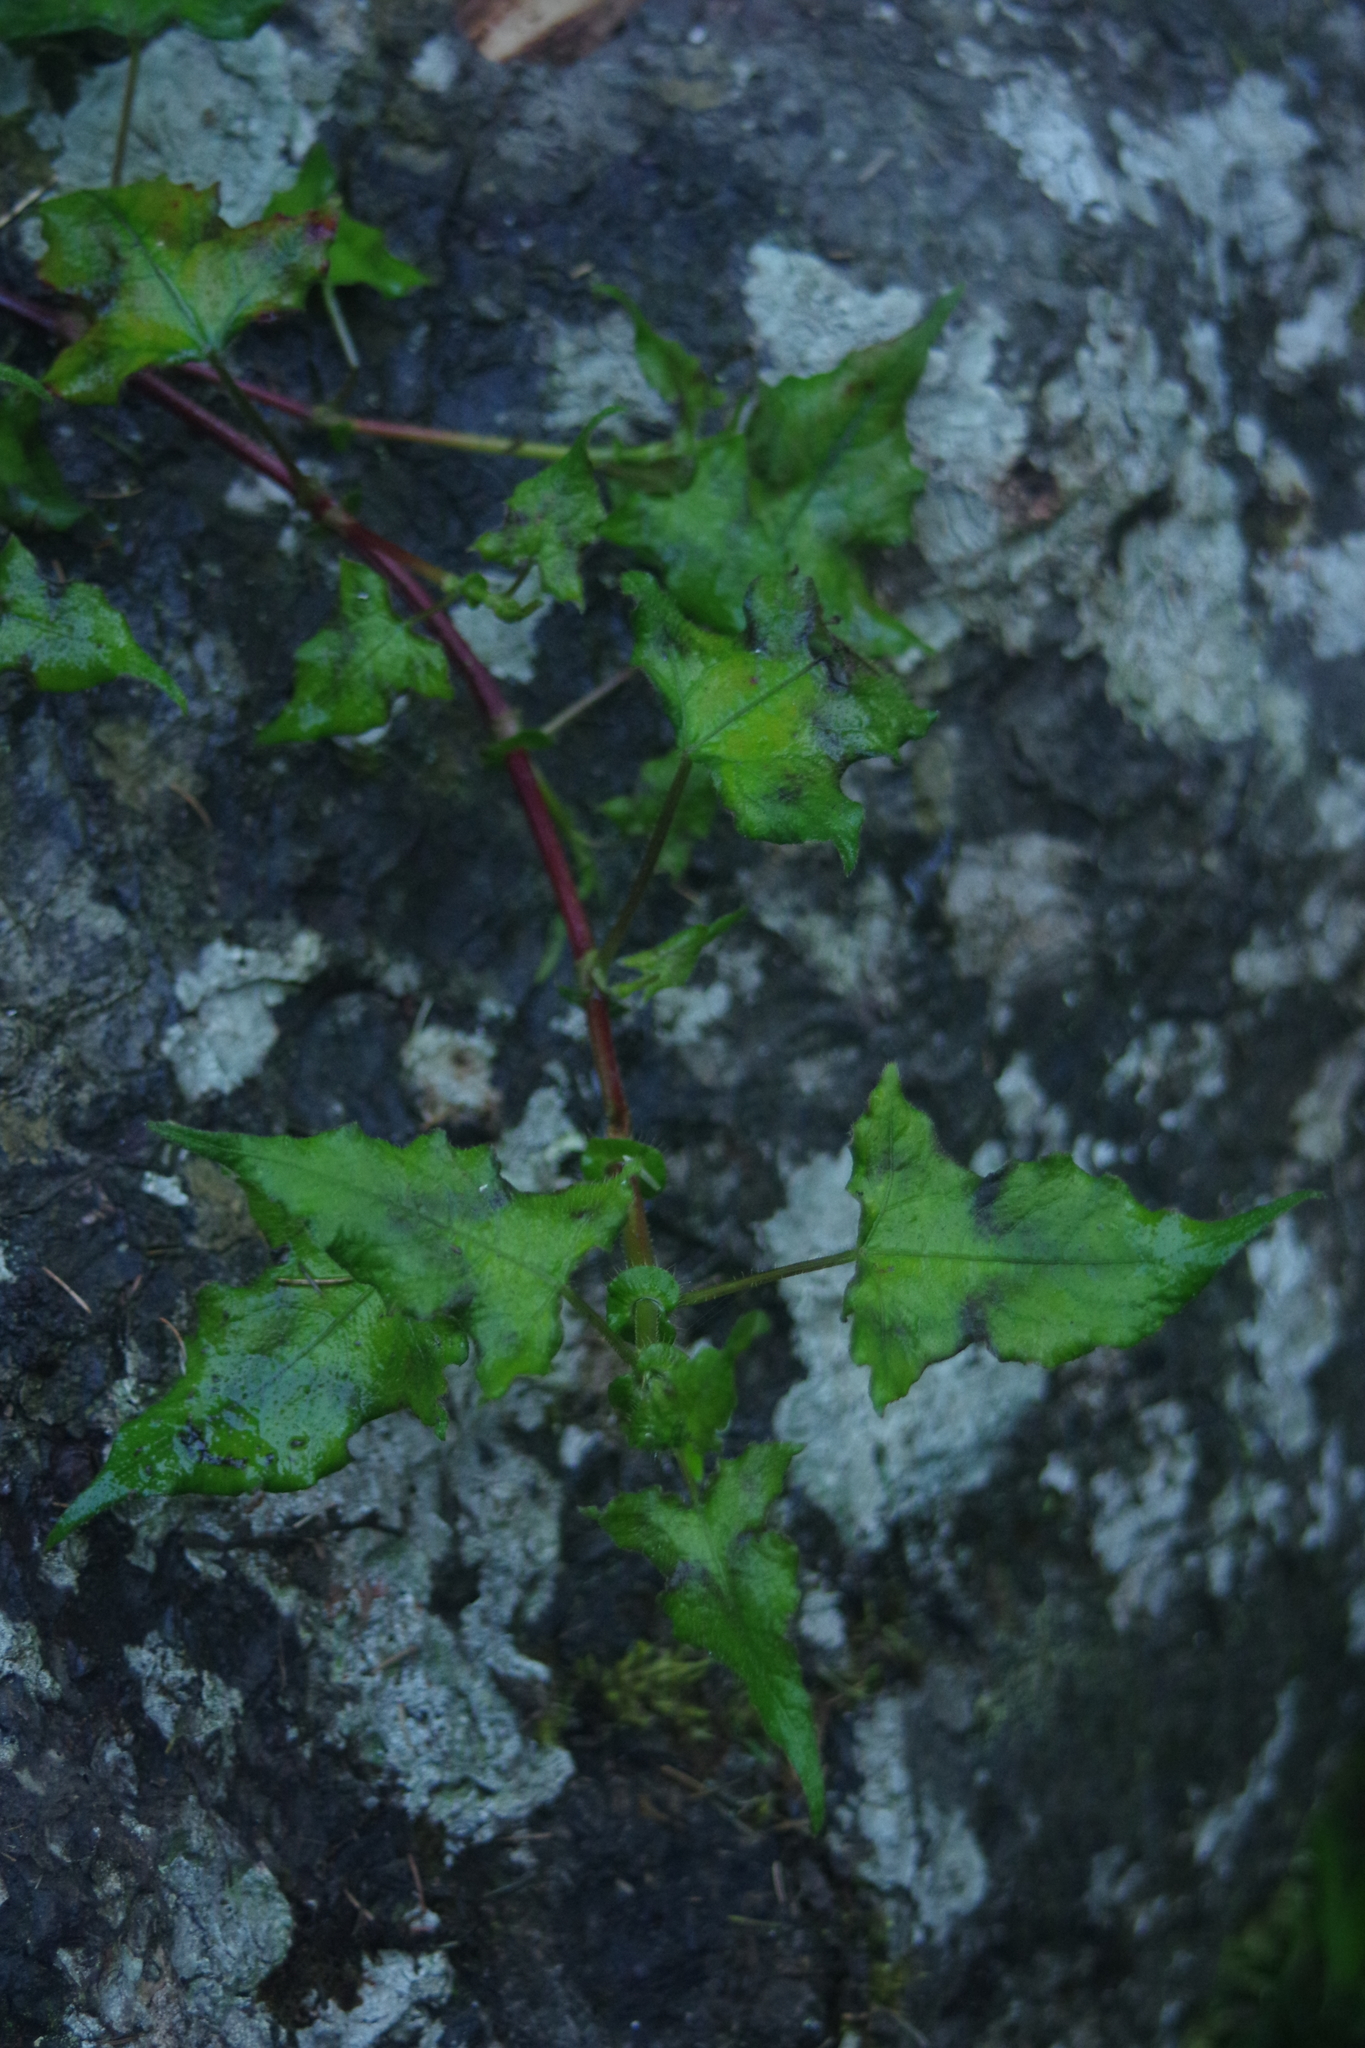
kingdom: Plantae
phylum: Tracheophyta
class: Magnoliopsida
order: Caryophyllales
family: Polygonaceae
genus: Persicaria
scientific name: Persicaria biconvexa
